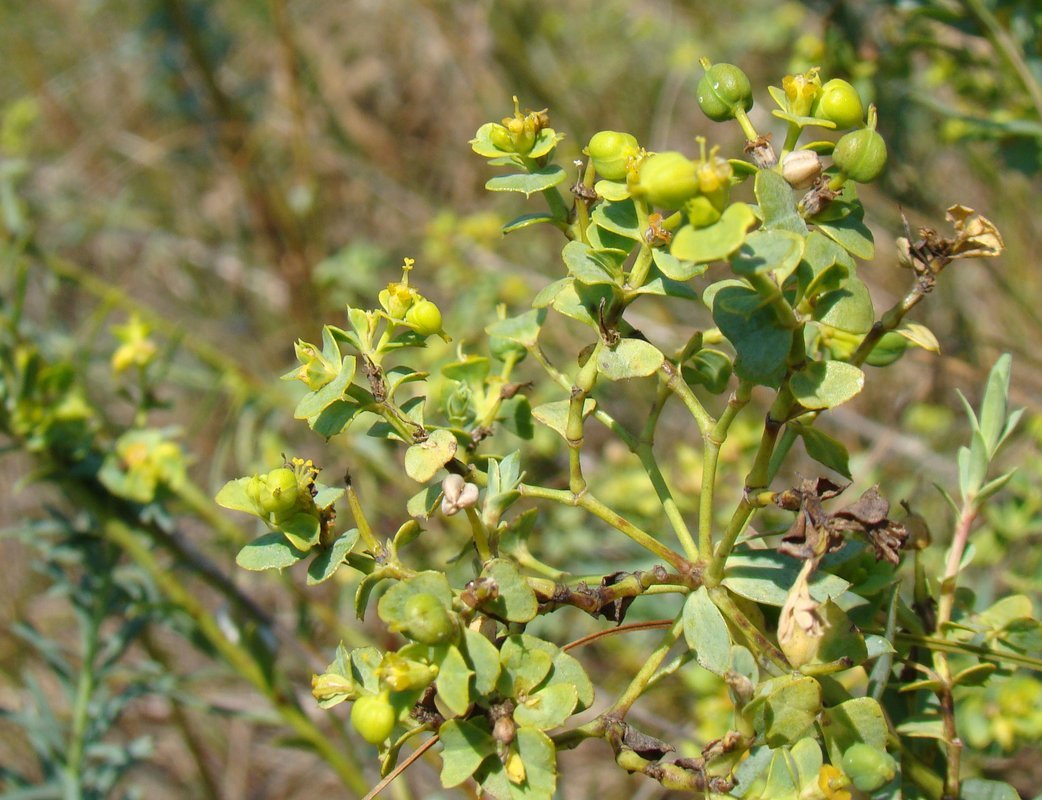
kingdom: Plantae
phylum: Tracheophyta
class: Magnoliopsida
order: Malpighiales
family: Euphorbiaceae
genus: Euphorbia
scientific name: Euphorbia seguieriana
